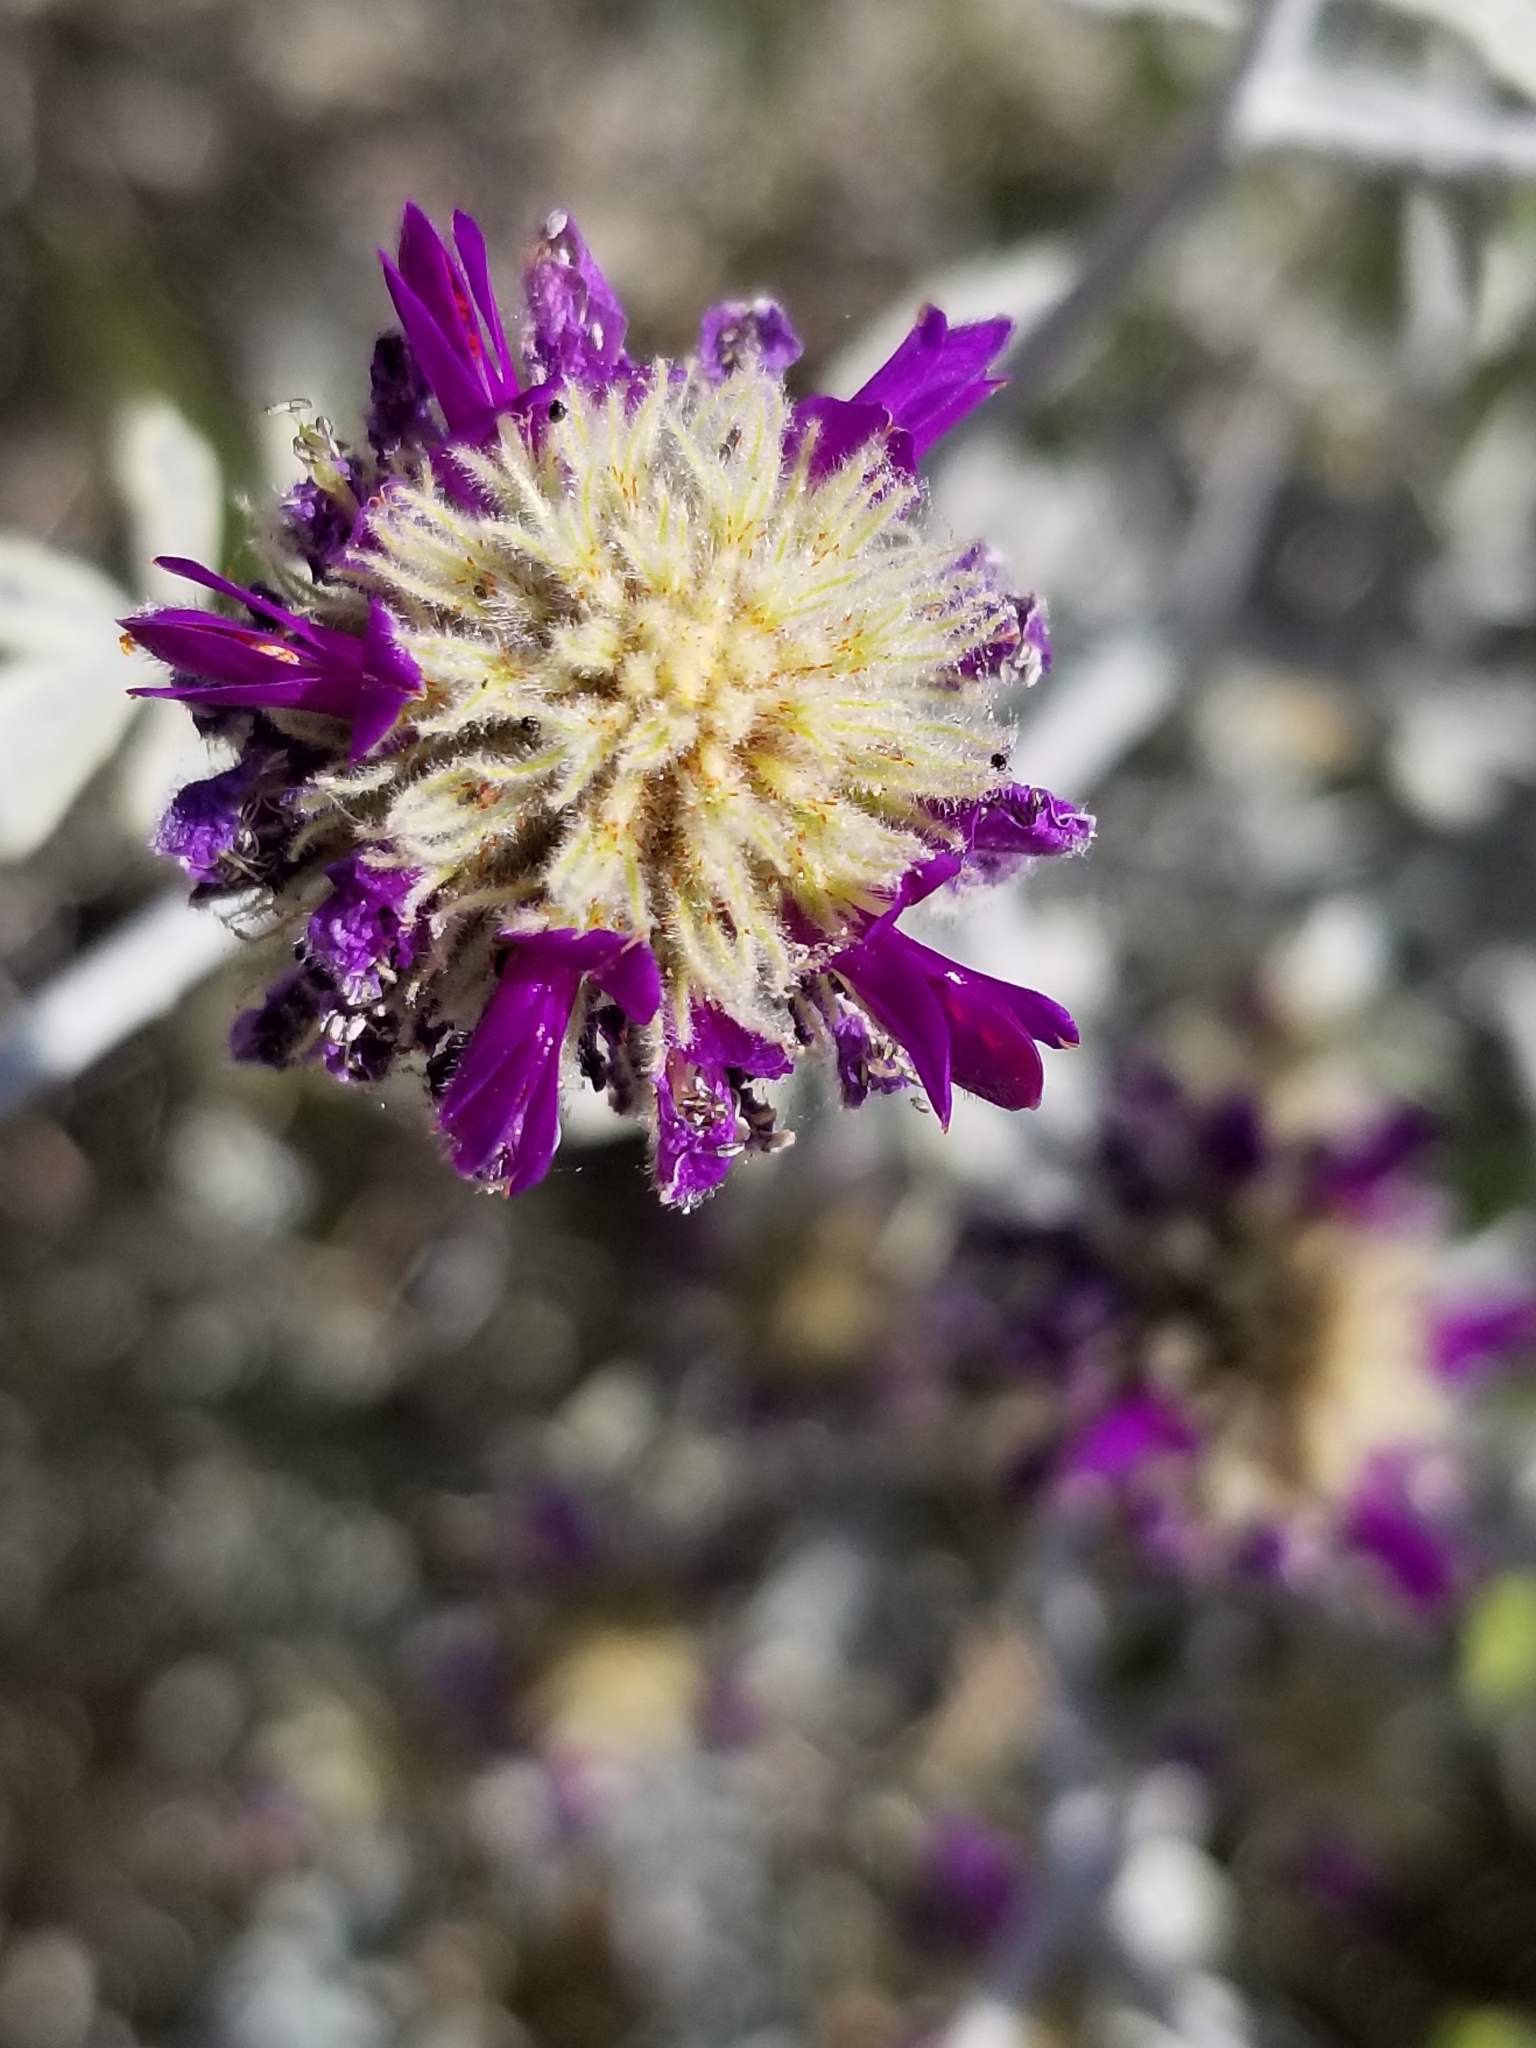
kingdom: Plantae
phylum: Tracheophyta
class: Magnoliopsida
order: Fabales
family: Fabaceae
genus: Psorothamnus
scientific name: Psorothamnus emoryi
